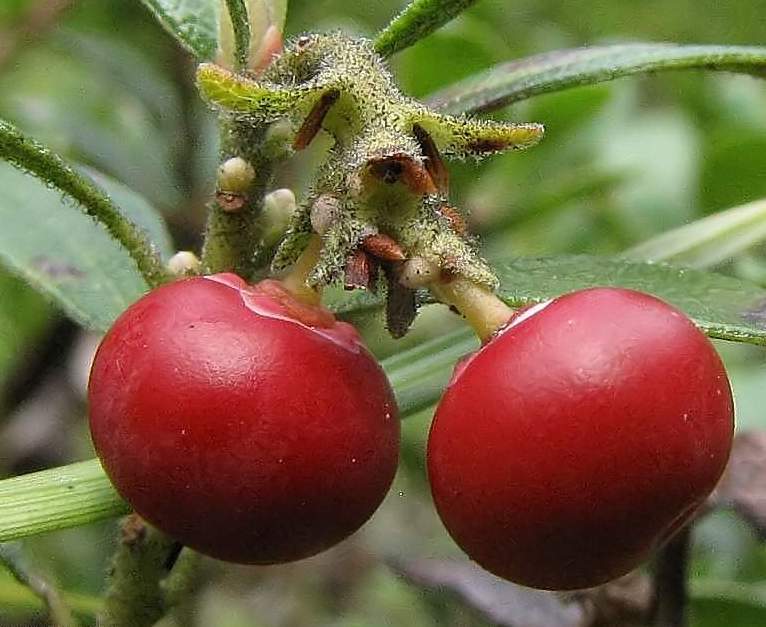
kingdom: Plantae
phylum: Tracheophyta
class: Magnoliopsida
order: Ericales
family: Ericaceae
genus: Arctostaphylos
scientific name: Arctostaphylos uva-ursi
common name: Bearberry
